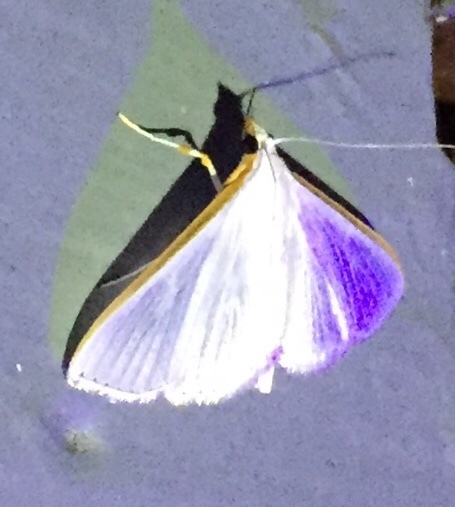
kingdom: Animalia
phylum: Arthropoda
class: Insecta
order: Lepidoptera
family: Crambidae
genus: Diaphania
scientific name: Diaphania costata
